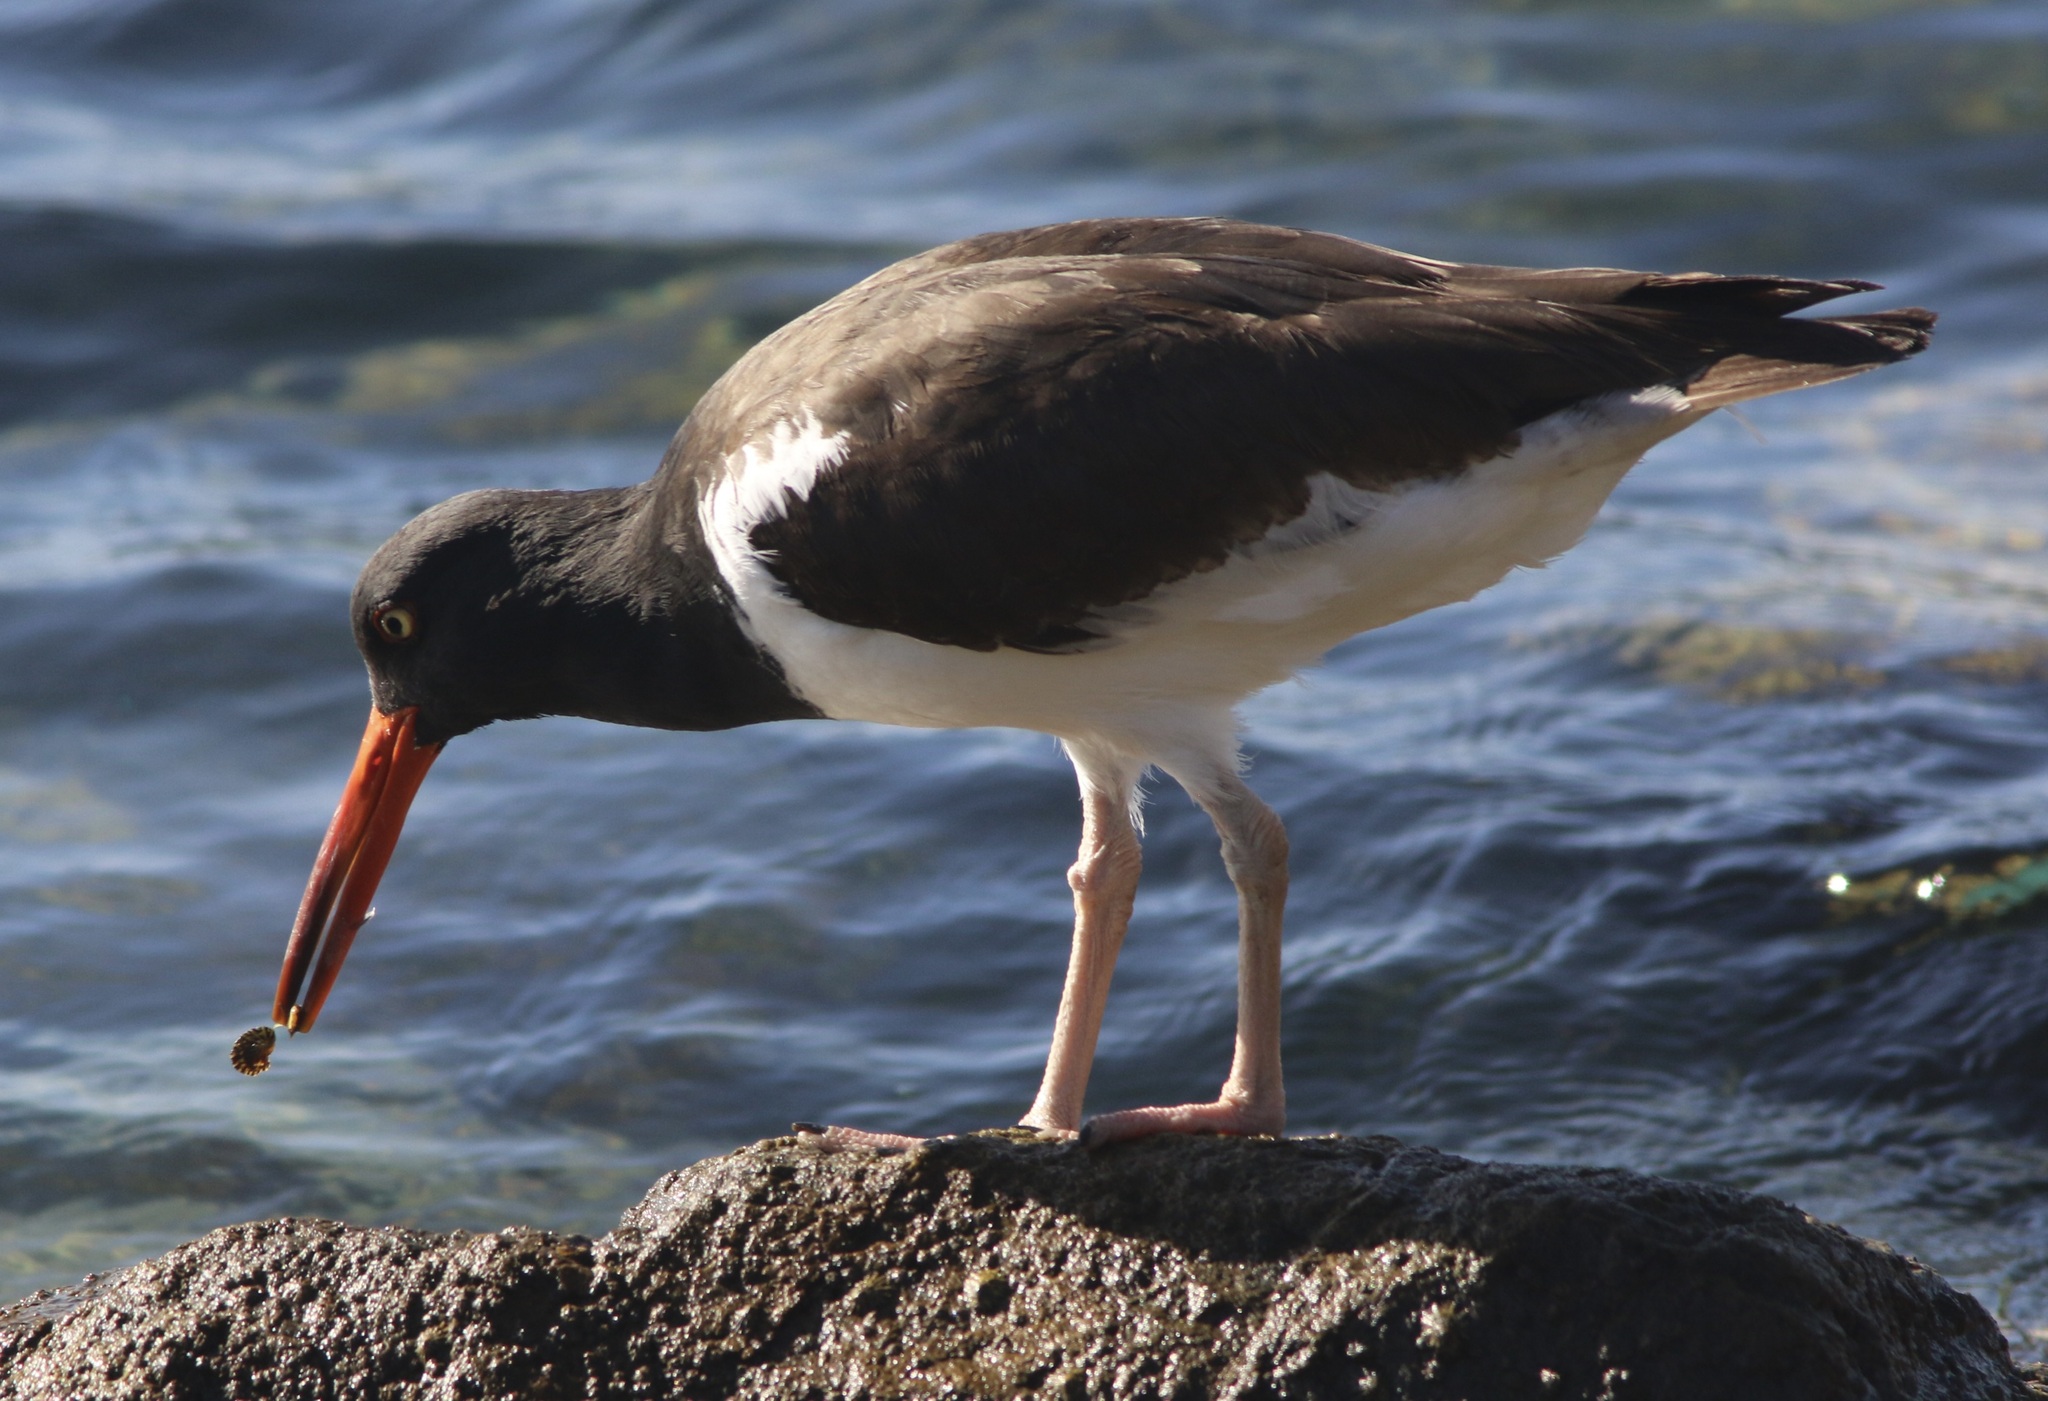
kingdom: Animalia
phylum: Chordata
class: Aves
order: Charadriiformes
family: Haematopodidae
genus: Haematopus
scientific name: Haematopus palliatus
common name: American oystercatcher
